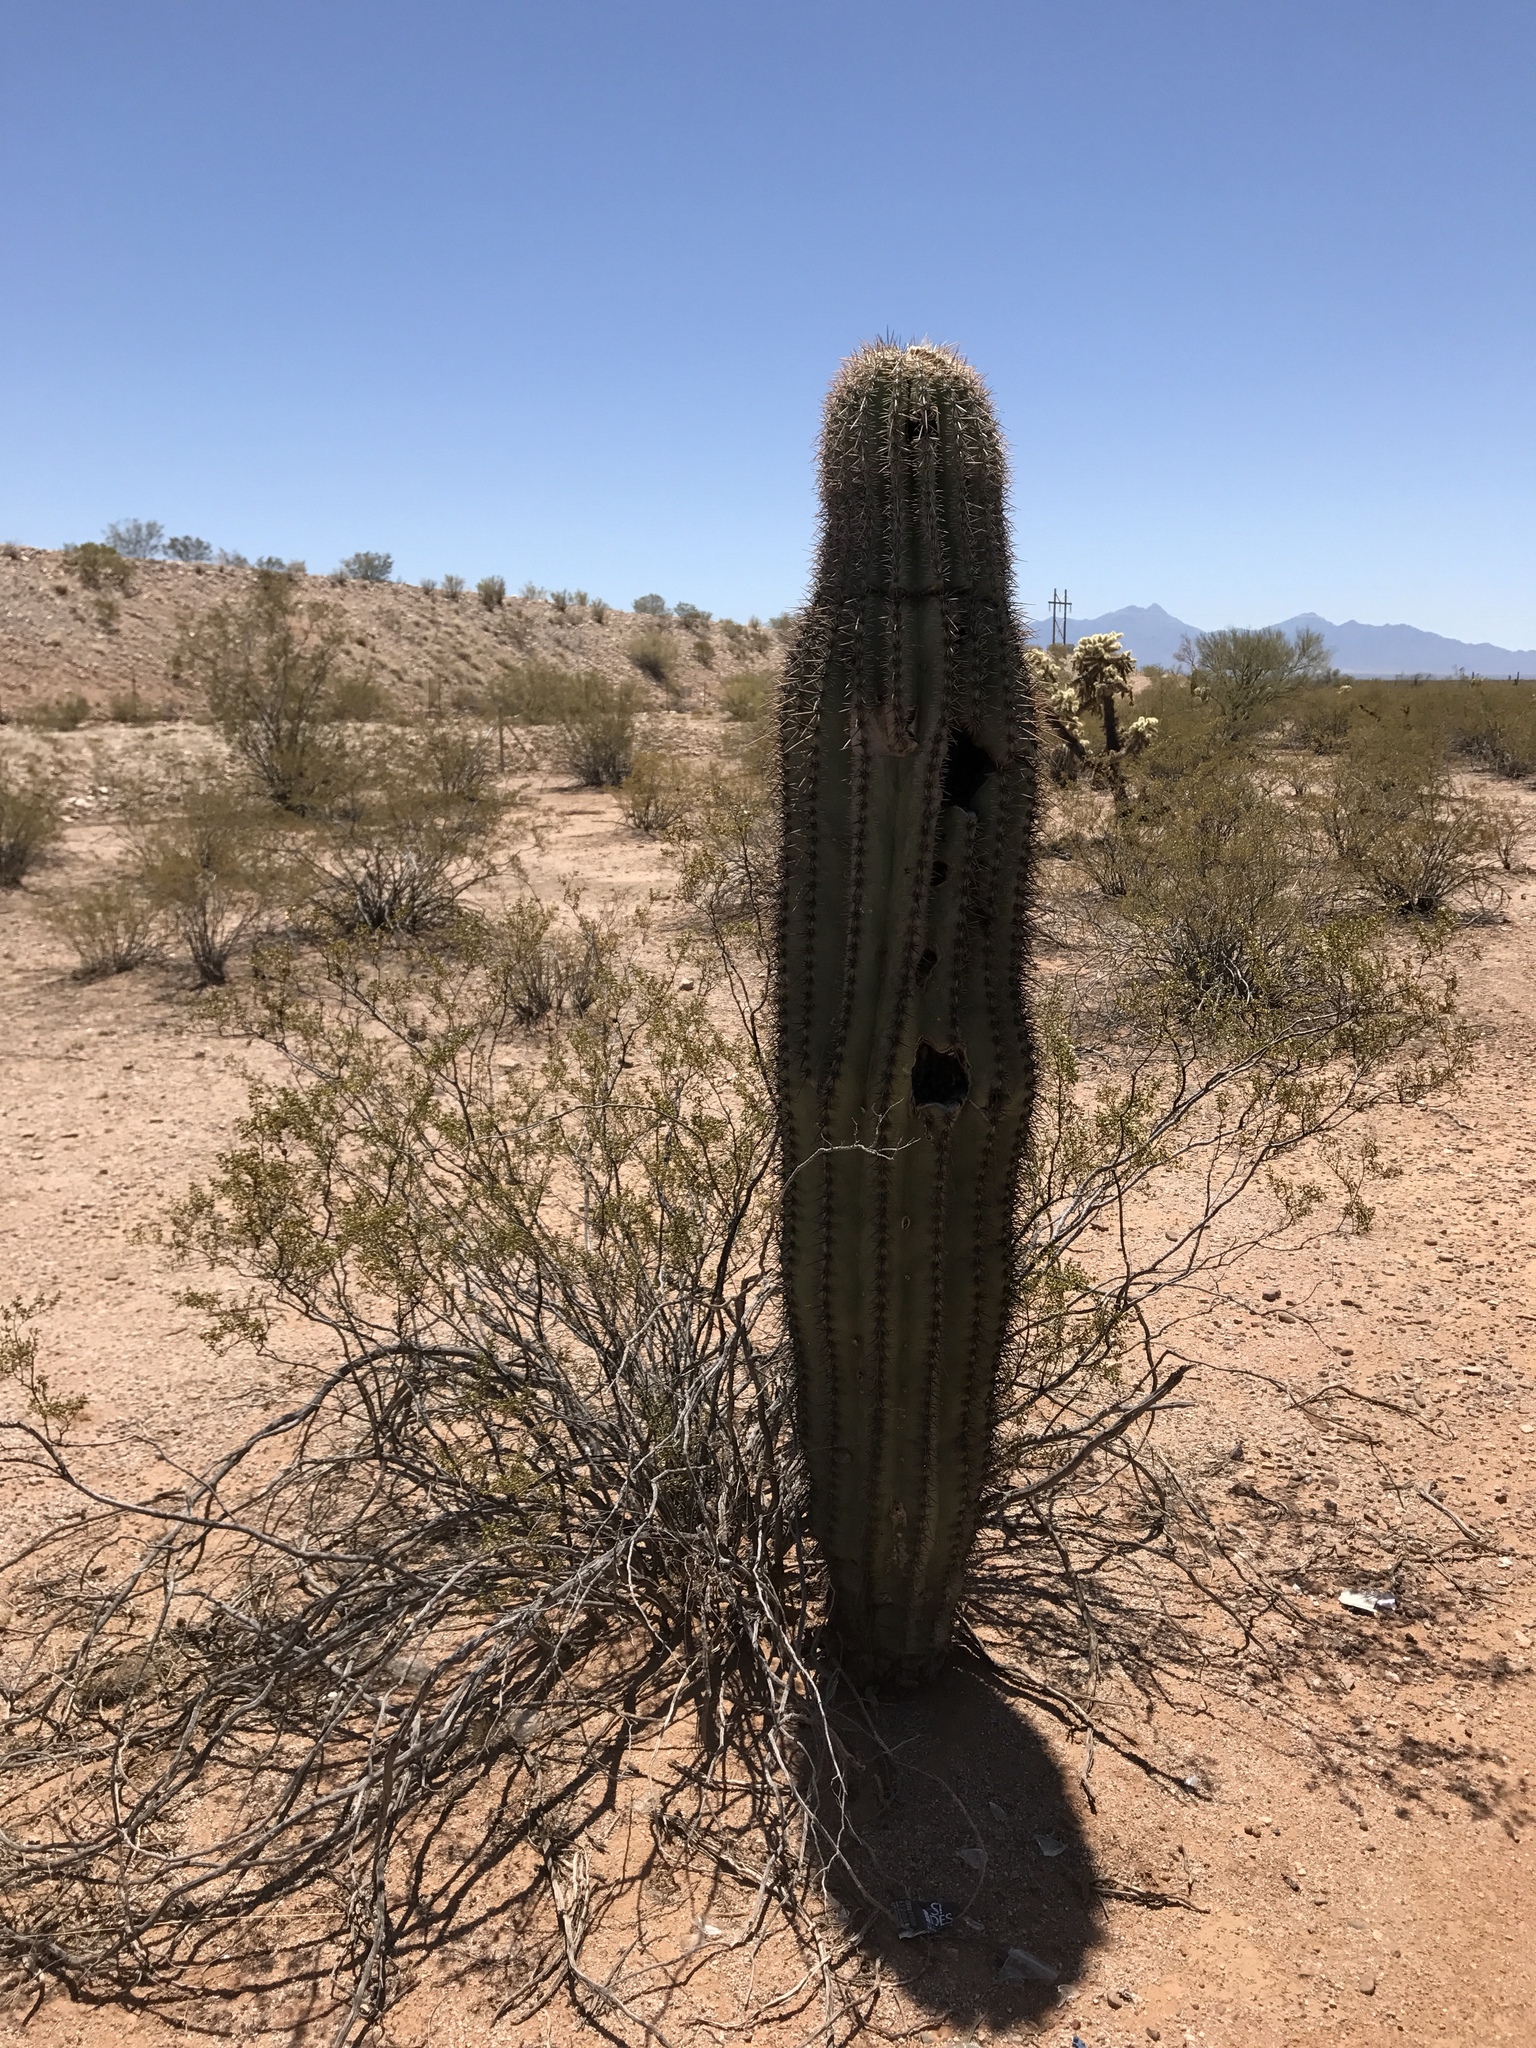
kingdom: Plantae
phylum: Tracheophyta
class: Magnoliopsida
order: Caryophyllales
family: Cactaceae
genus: Carnegiea
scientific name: Carnegiea gigantea
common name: Saguaro
